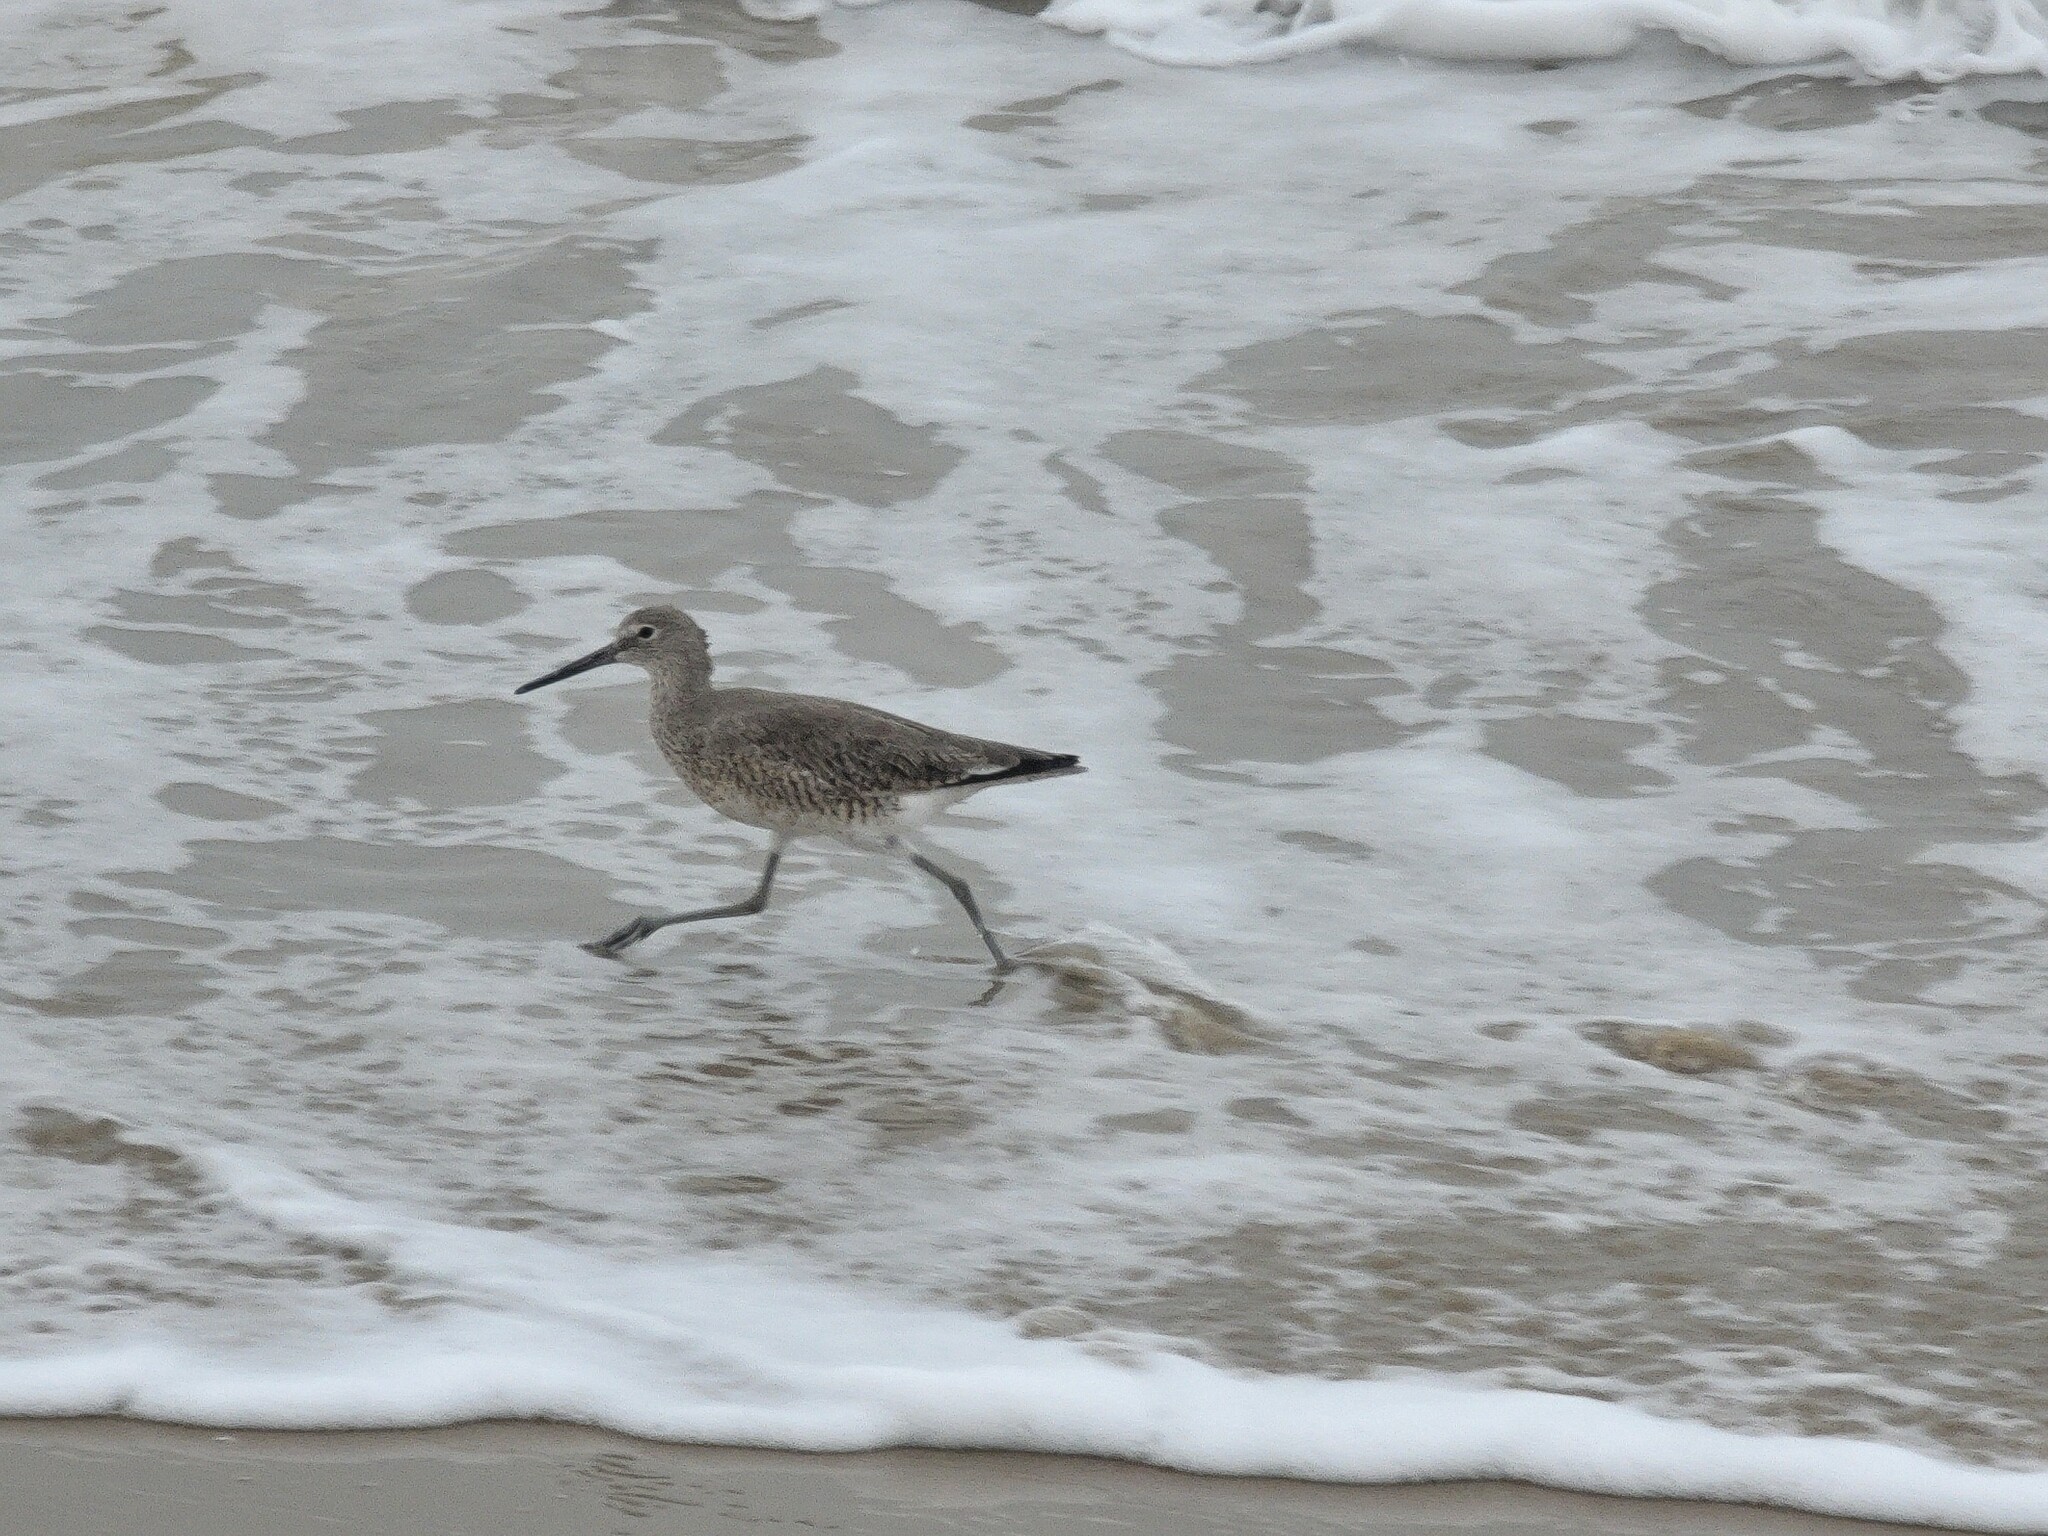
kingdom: Animalia
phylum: Chordata
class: Aves
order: Charadriiformes
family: Scolopacidae
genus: Tringa
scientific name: Tringa semipalmata
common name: Willet
